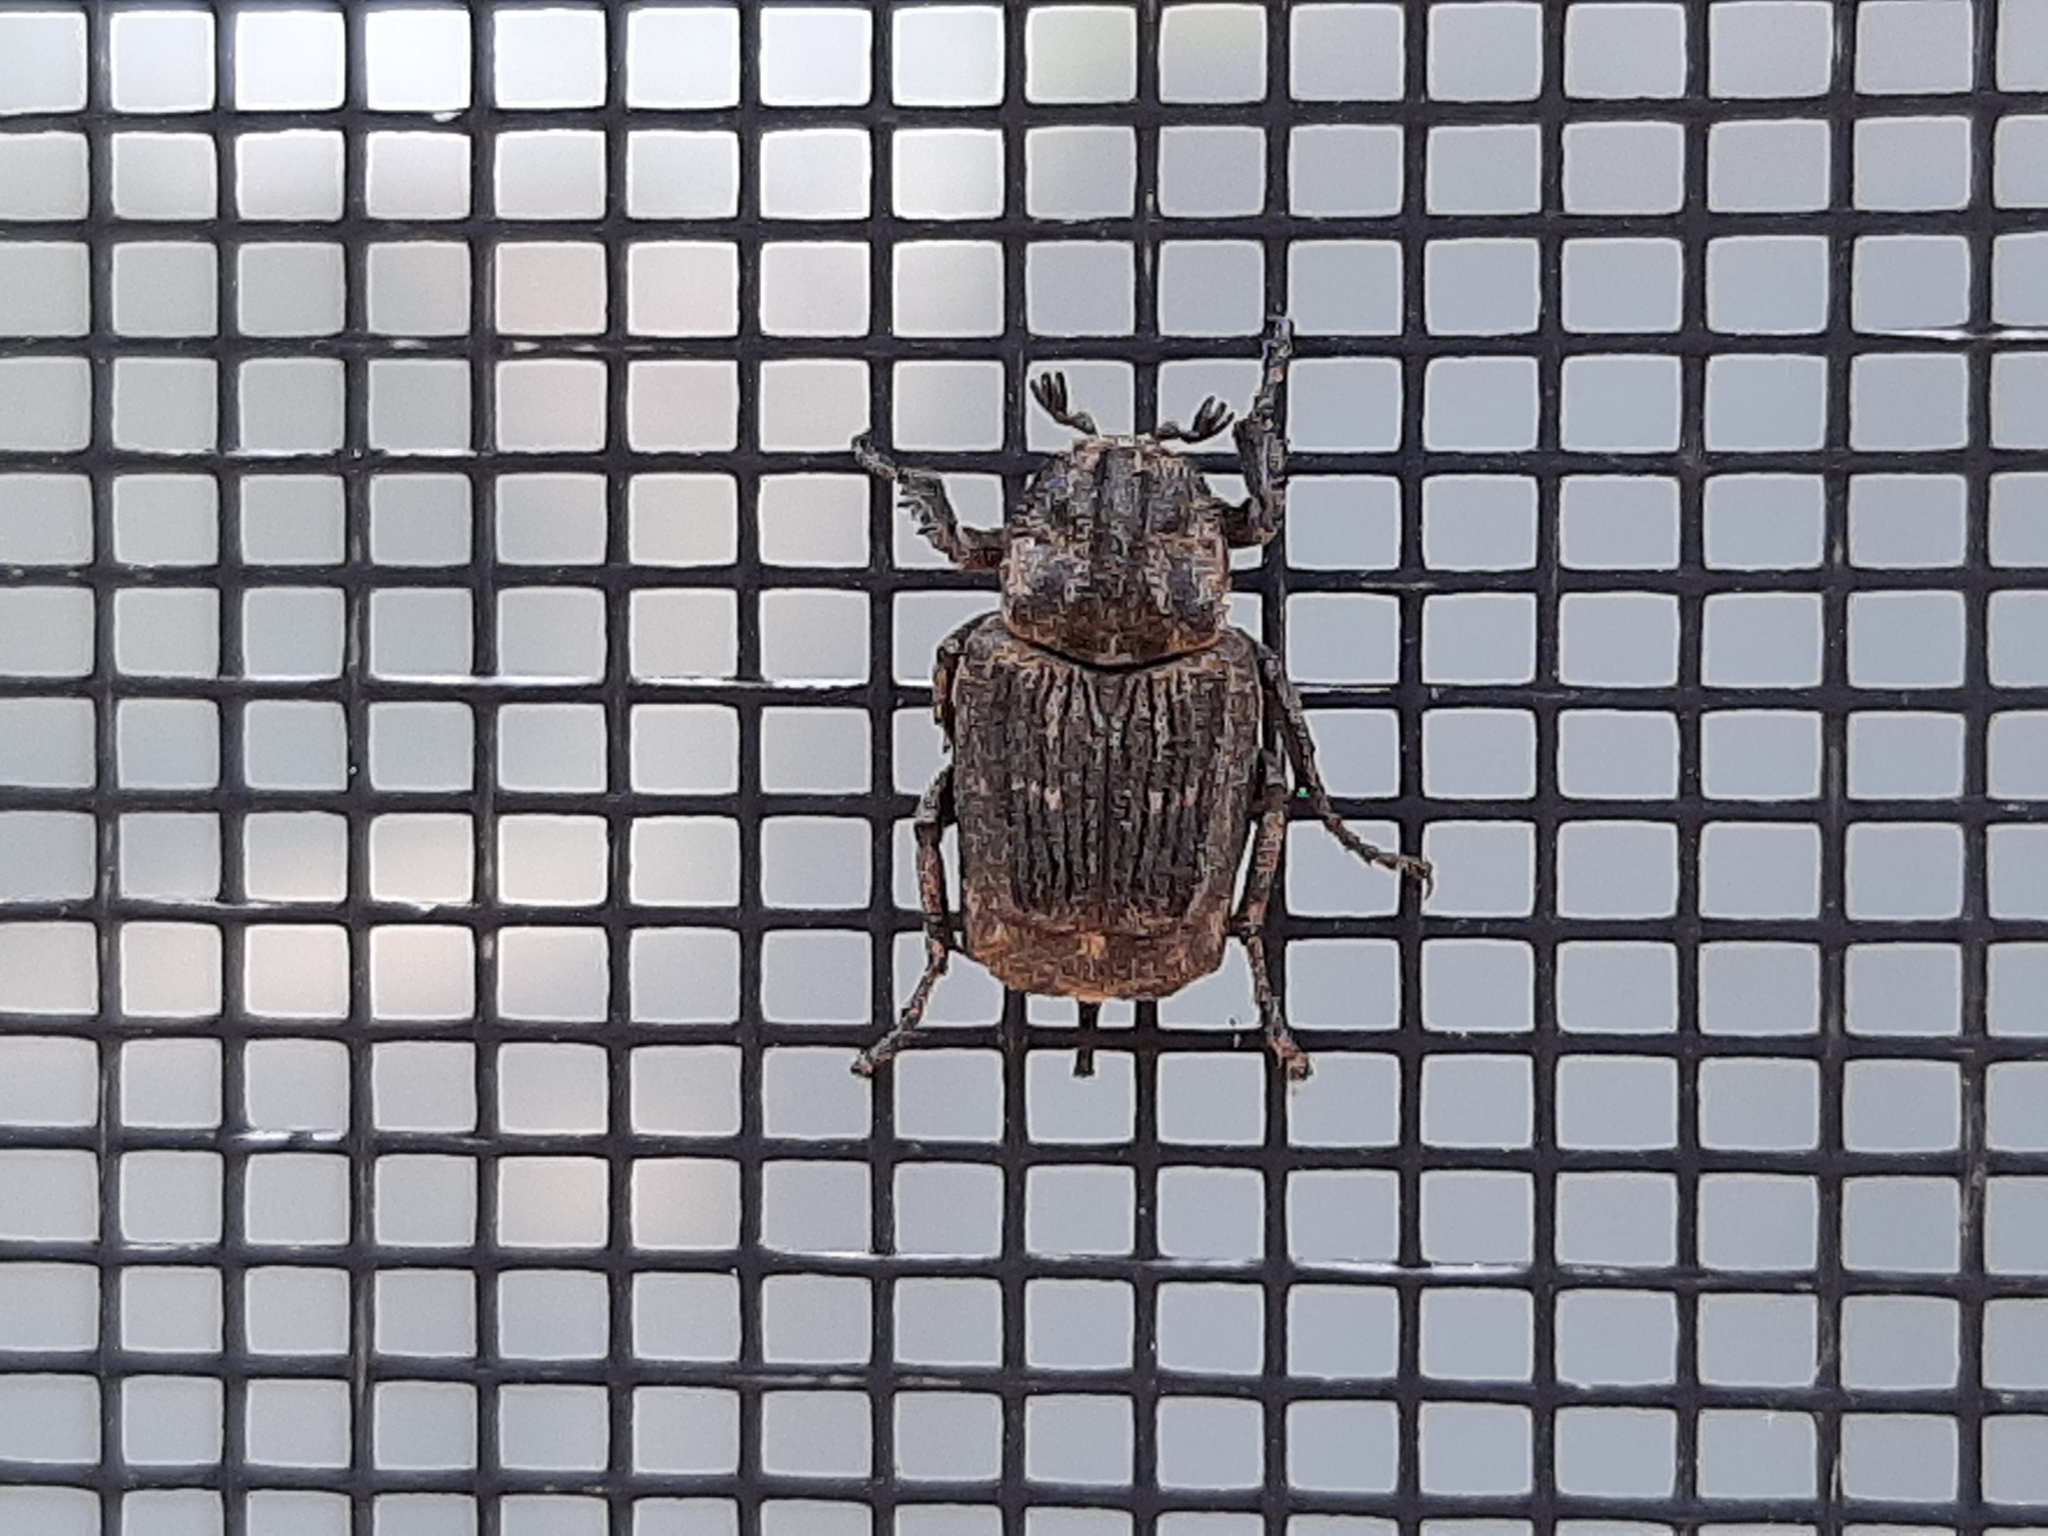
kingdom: Animalia
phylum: Arthropoda
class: Insecta
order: Coleoptera
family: Scarabaeidae
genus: Valgus
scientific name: Valgus hemipterus
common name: Bug flower chafer
